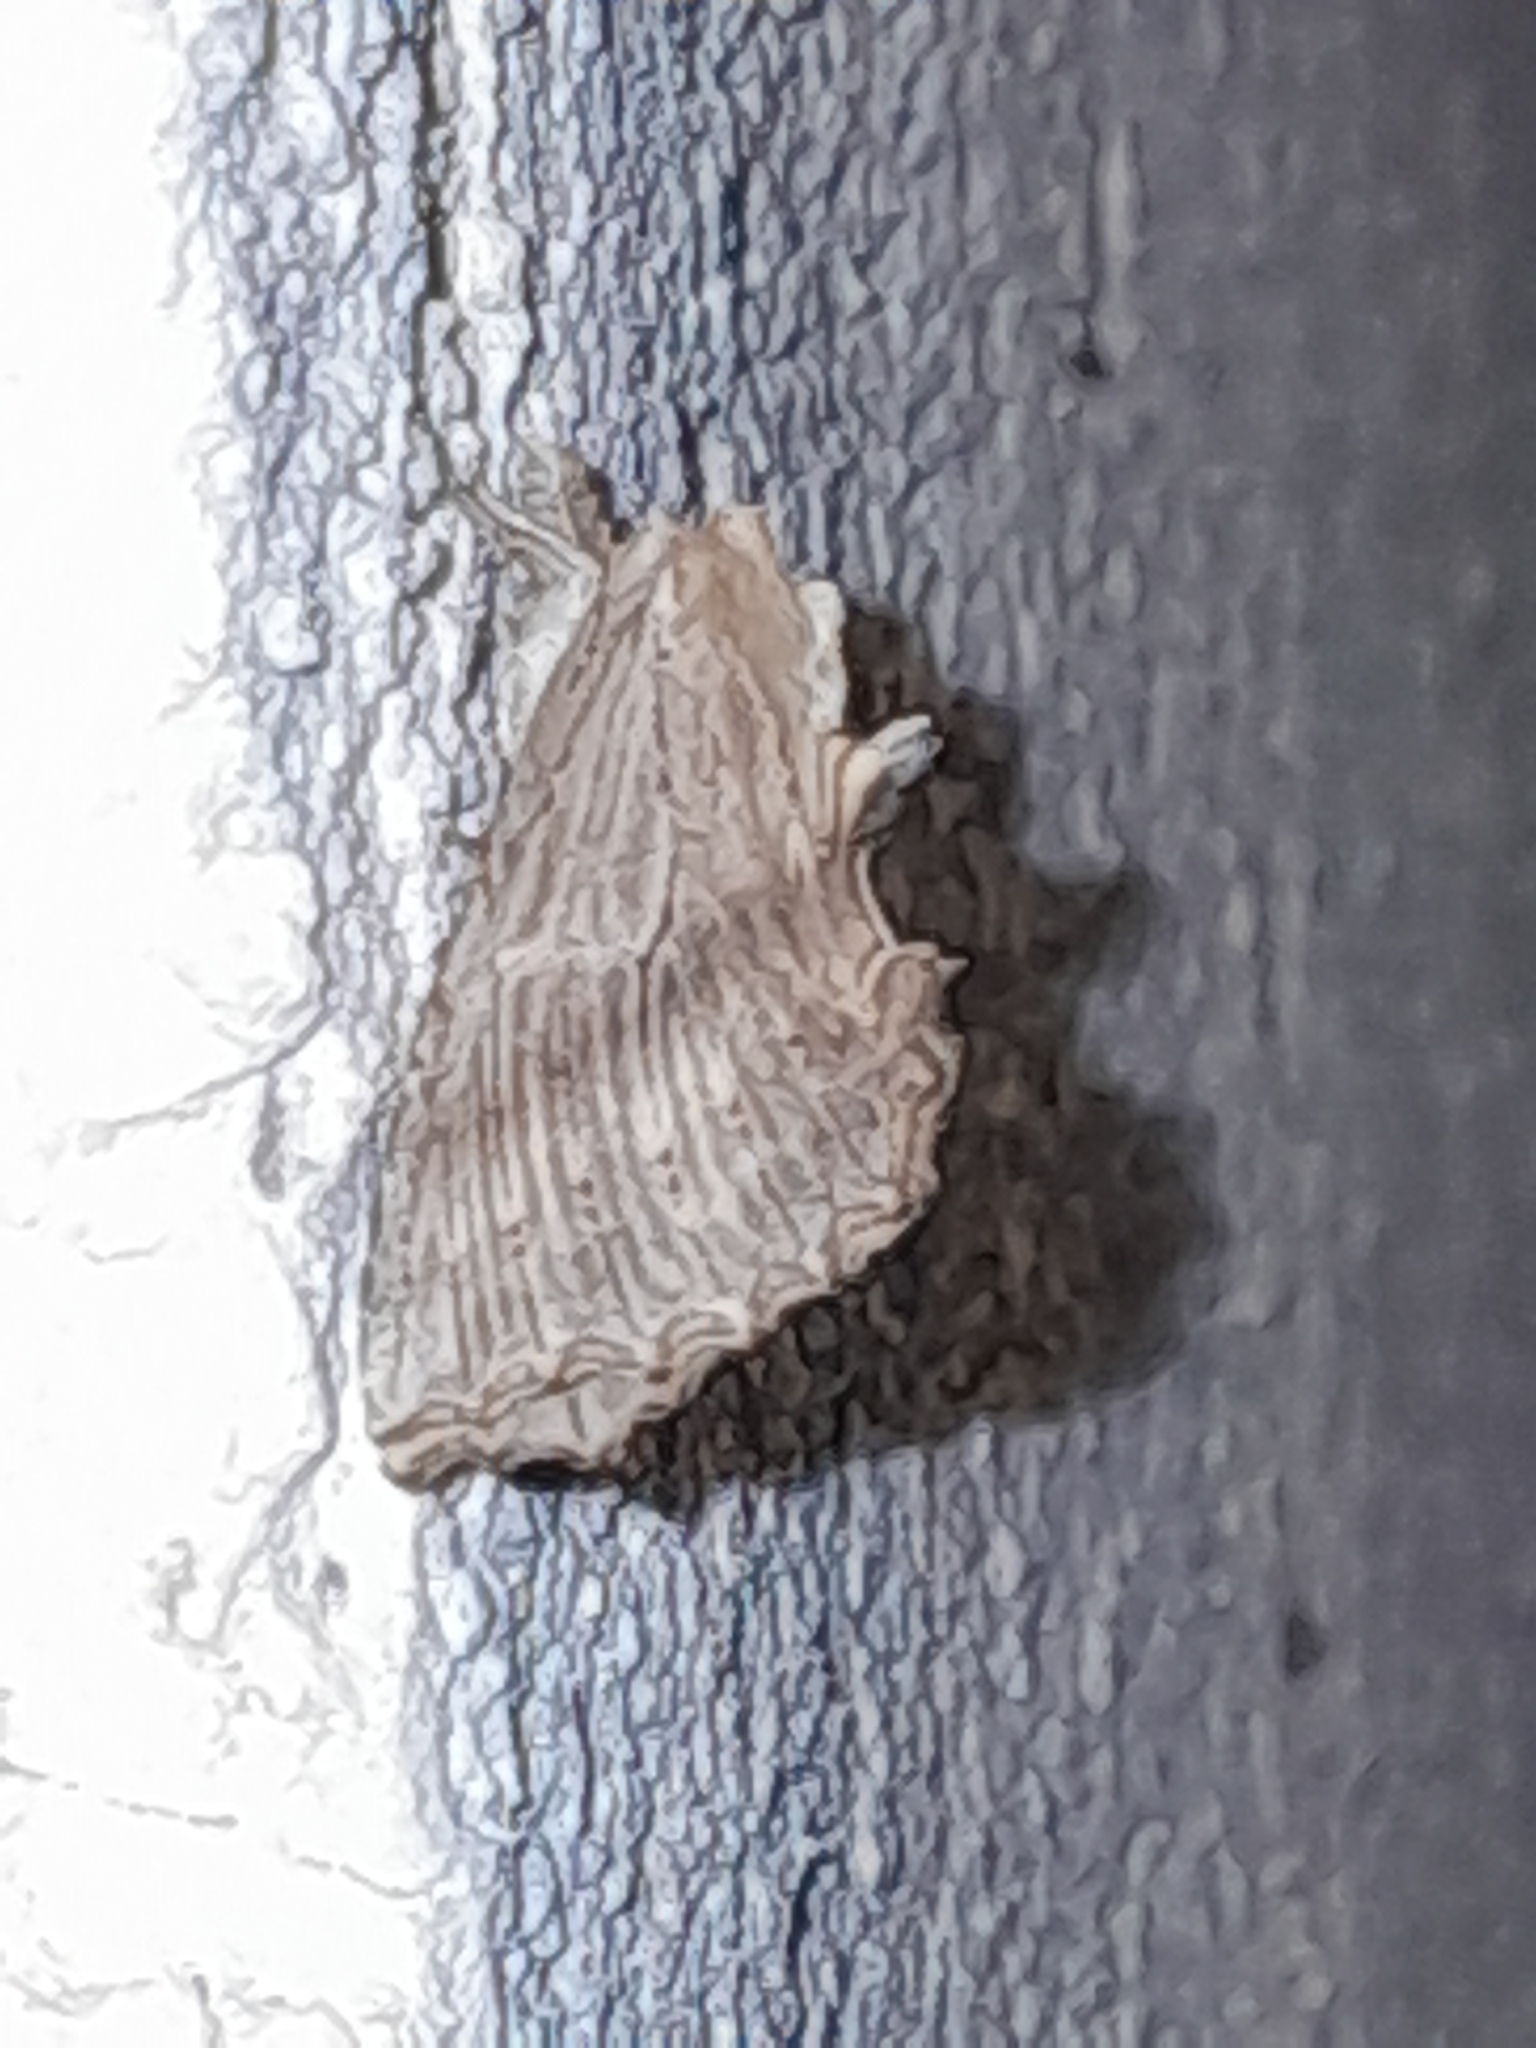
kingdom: Animalia
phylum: Arthropoda
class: Insecta
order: Lepidoptera
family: Notodontidae
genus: Pterostoma
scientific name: Pterostoma palpina
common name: Pale prominent
